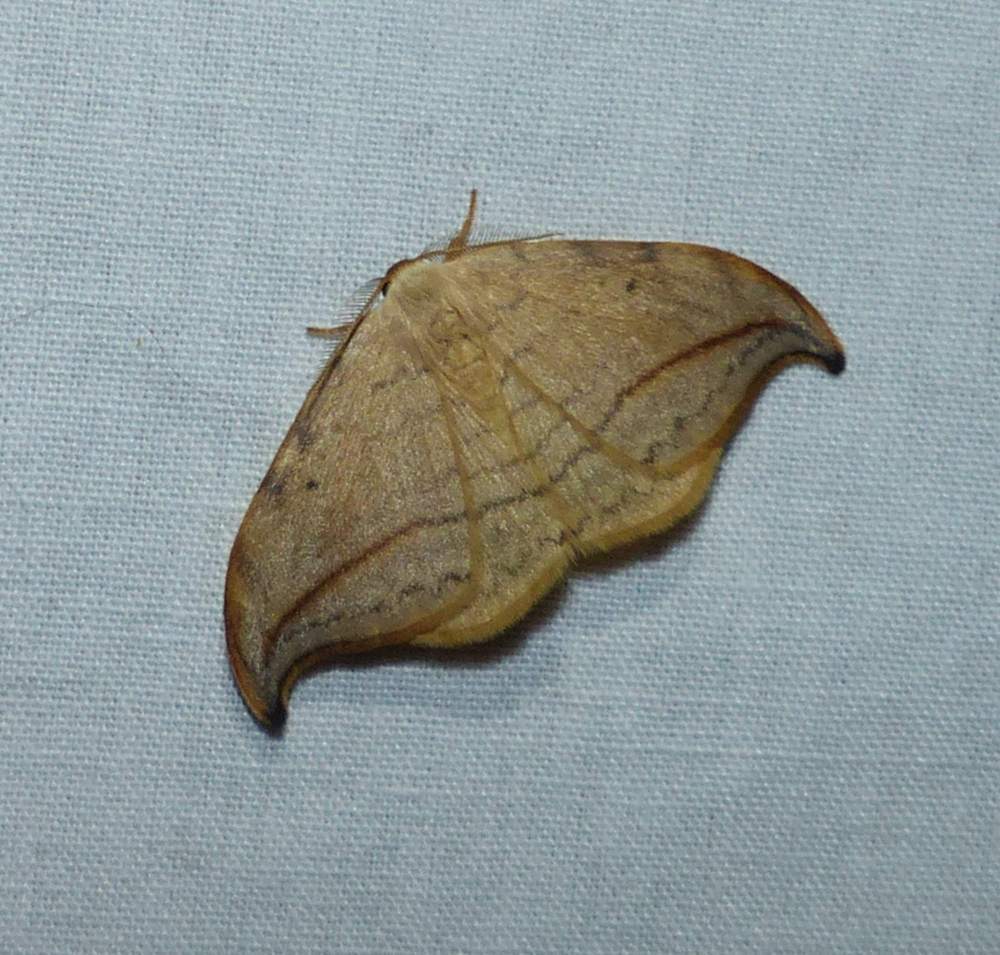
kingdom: Animalia
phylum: Arthropoda
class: Insecta
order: Lepidoptera
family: Drepanidae
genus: Drepana
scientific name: Drepana arcuata
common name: Arched hooktip moth
